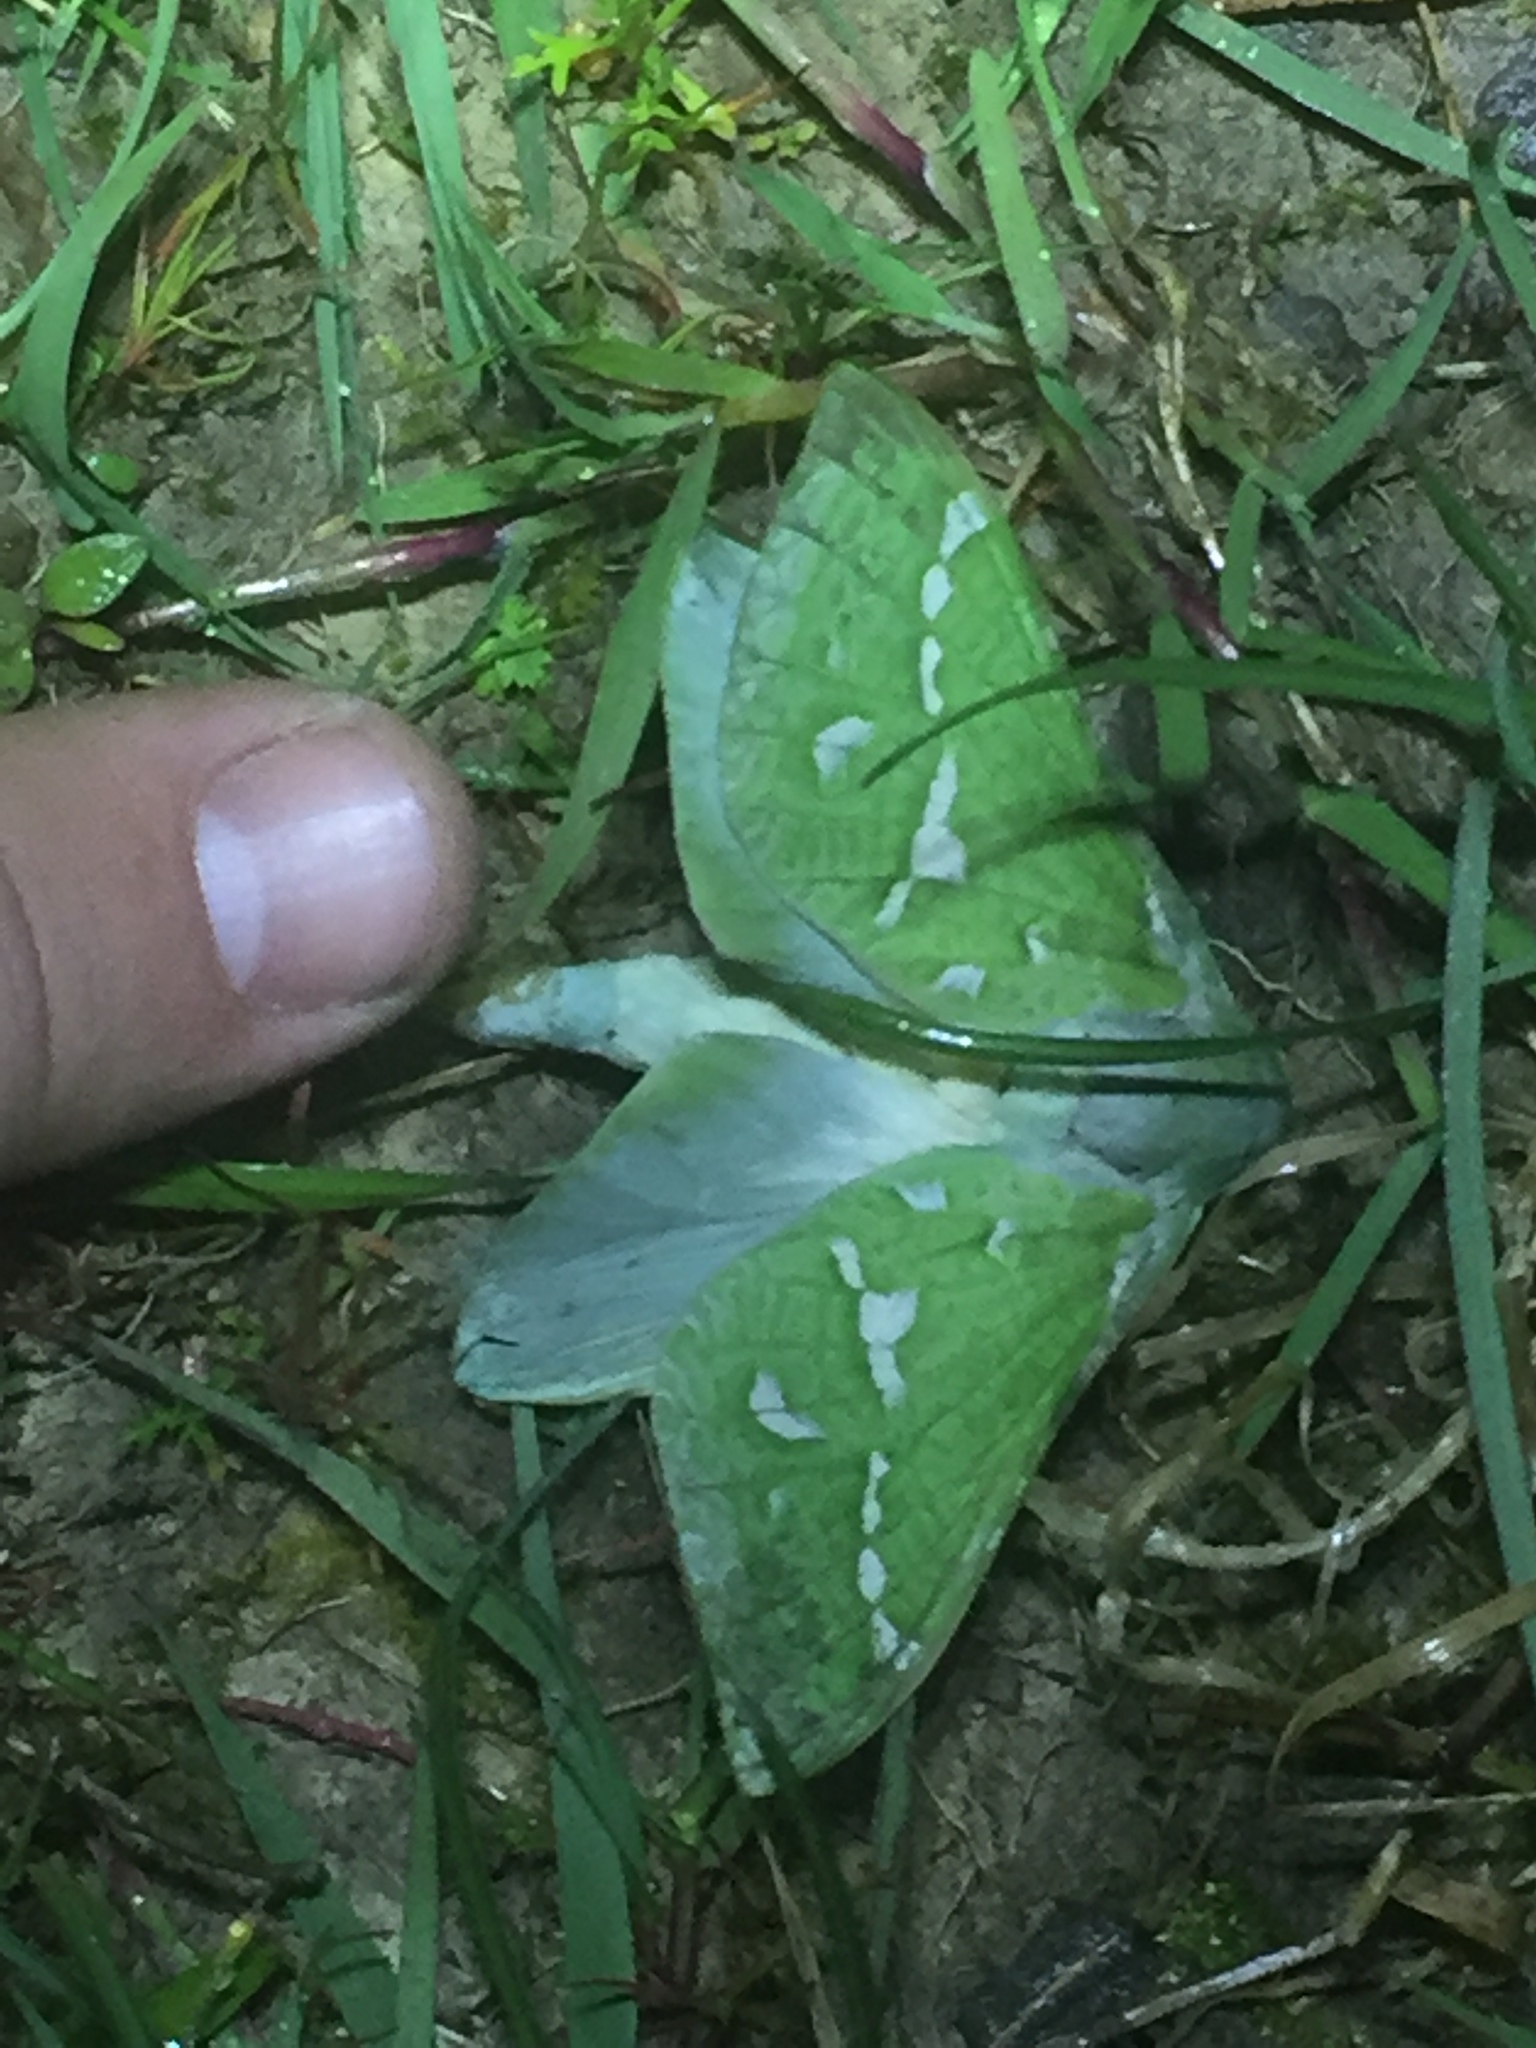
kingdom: Animalia
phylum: Arthropoda
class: Insecta
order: Lepidoptera
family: Hepialidae
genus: Aenetus
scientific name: Aenetus virescens
